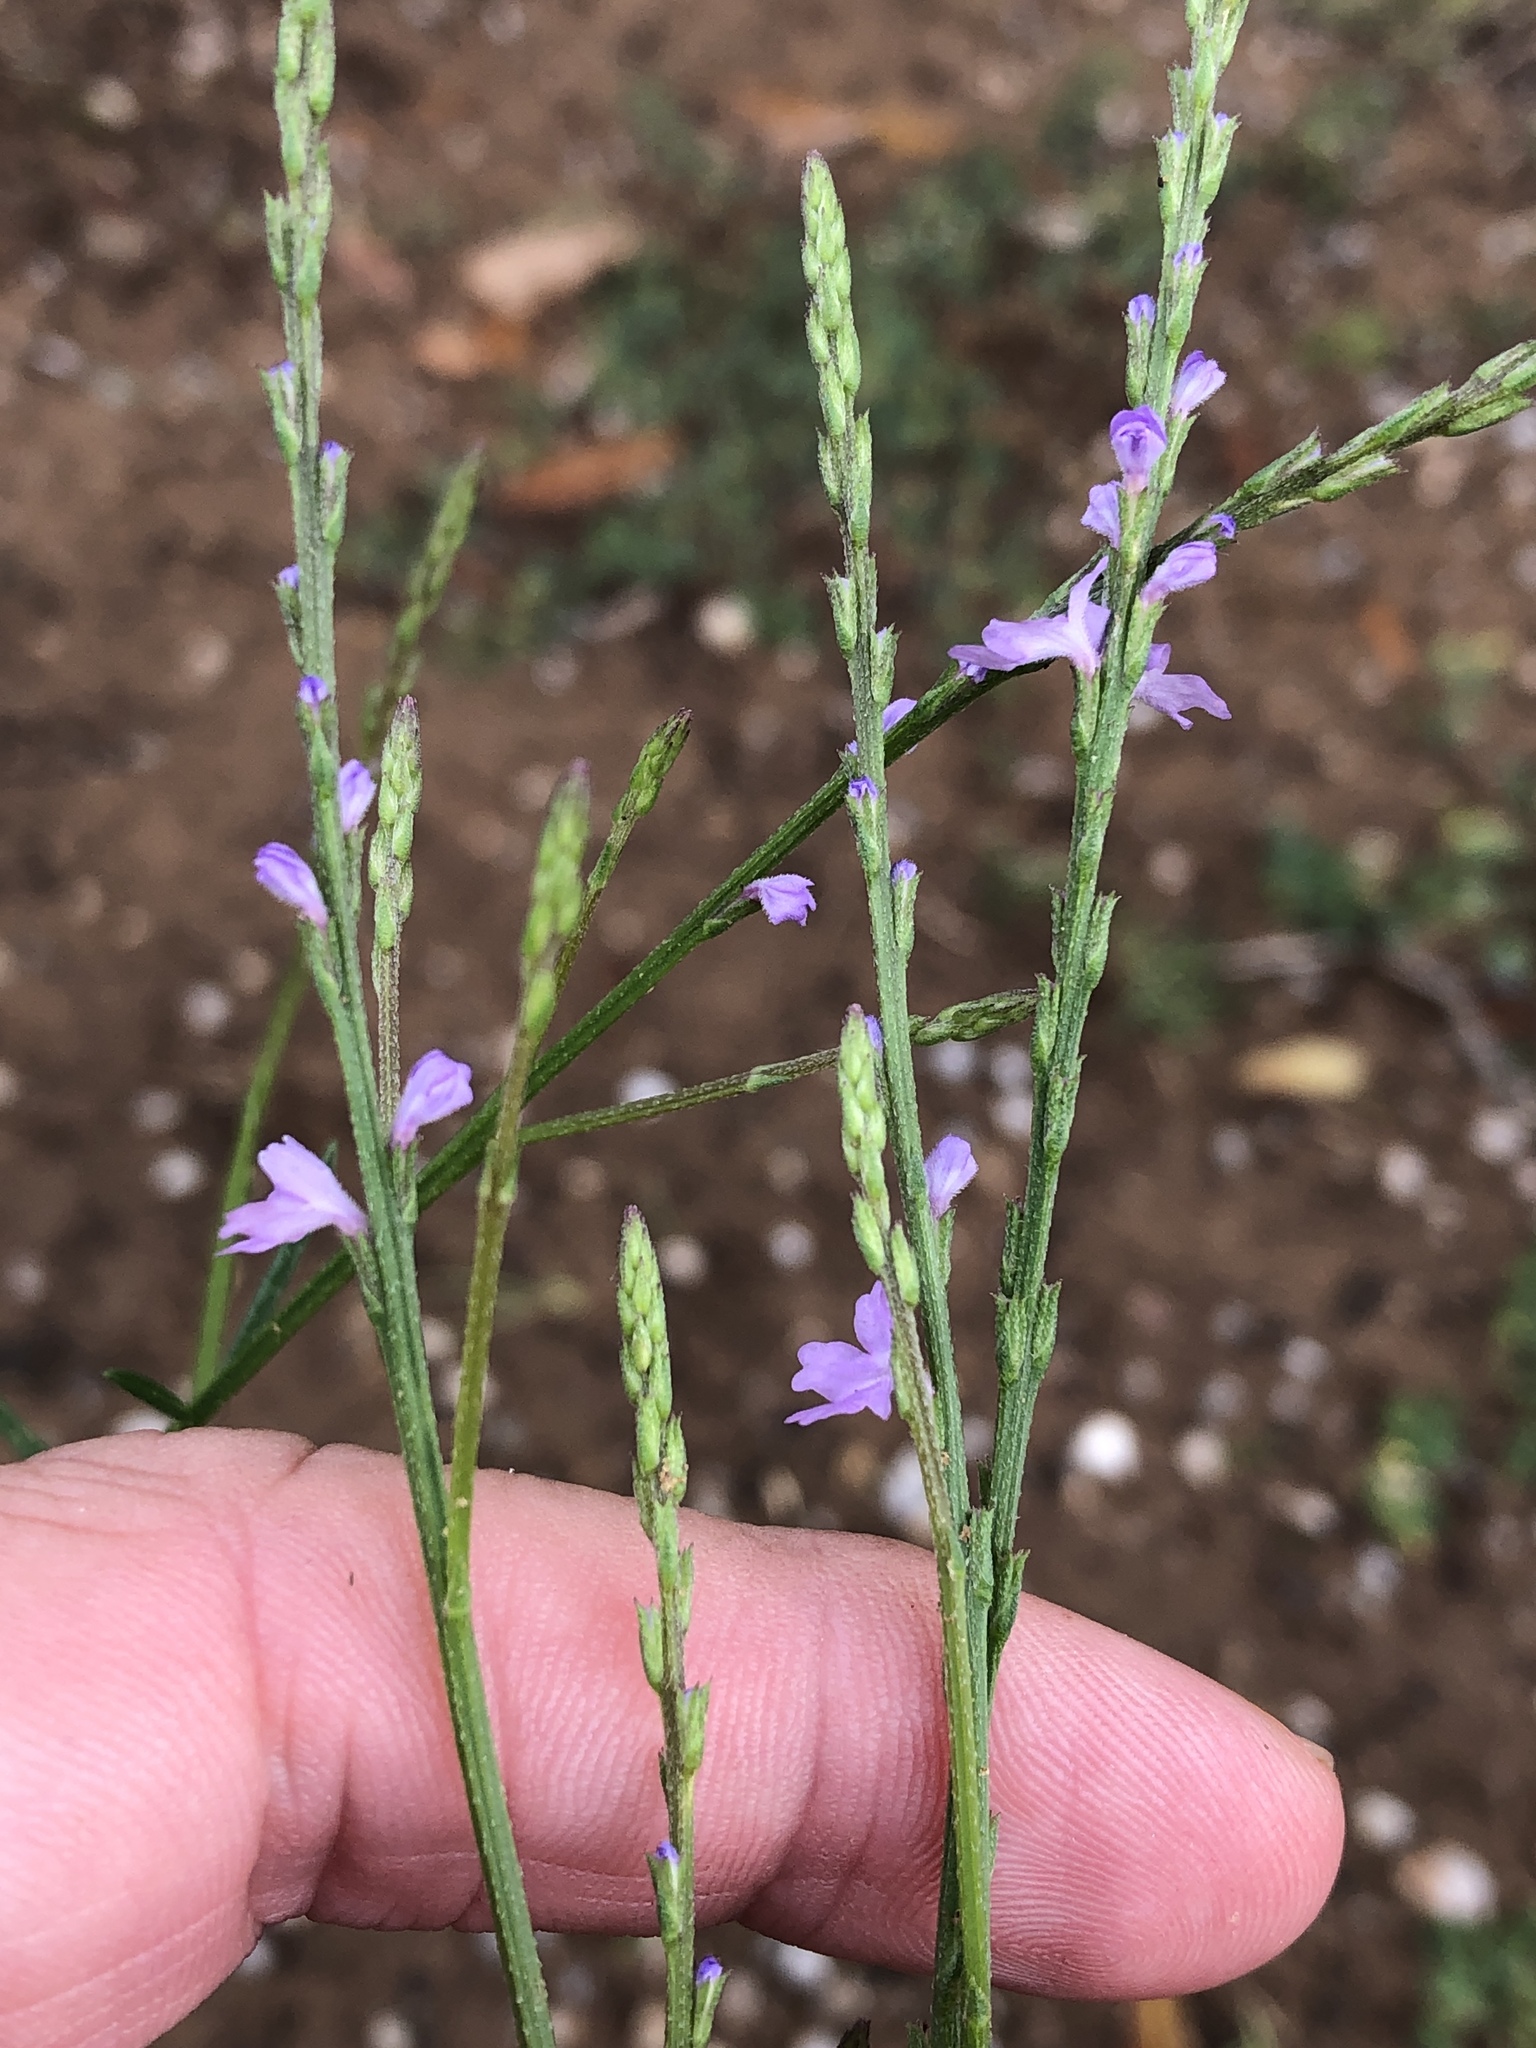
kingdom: Plantae
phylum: Tracheophyta
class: Magnoliopsida
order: Lamiales
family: Verbenaceae
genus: Verbena
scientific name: Verbena halei
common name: Texas vervain
